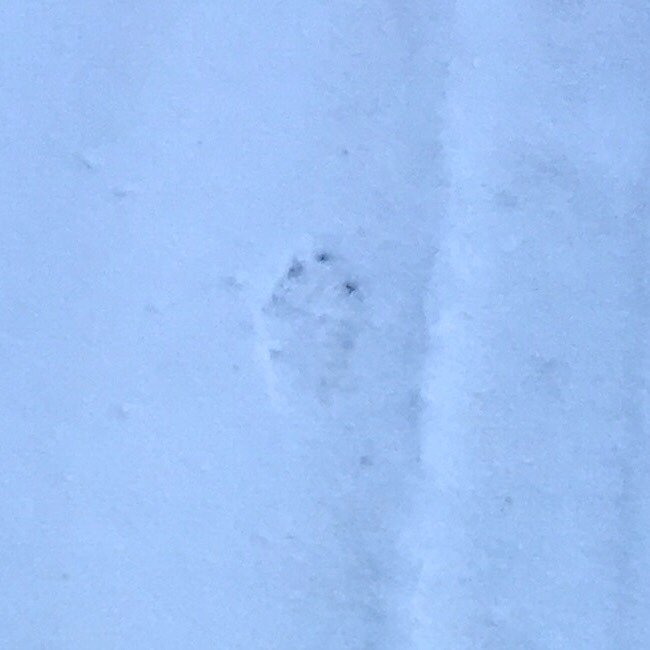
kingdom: Animalia
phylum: Chordata
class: Mammalia
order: Lagomorpha
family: Leporidae
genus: Lepus
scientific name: Lepus europaeus
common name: European hare
